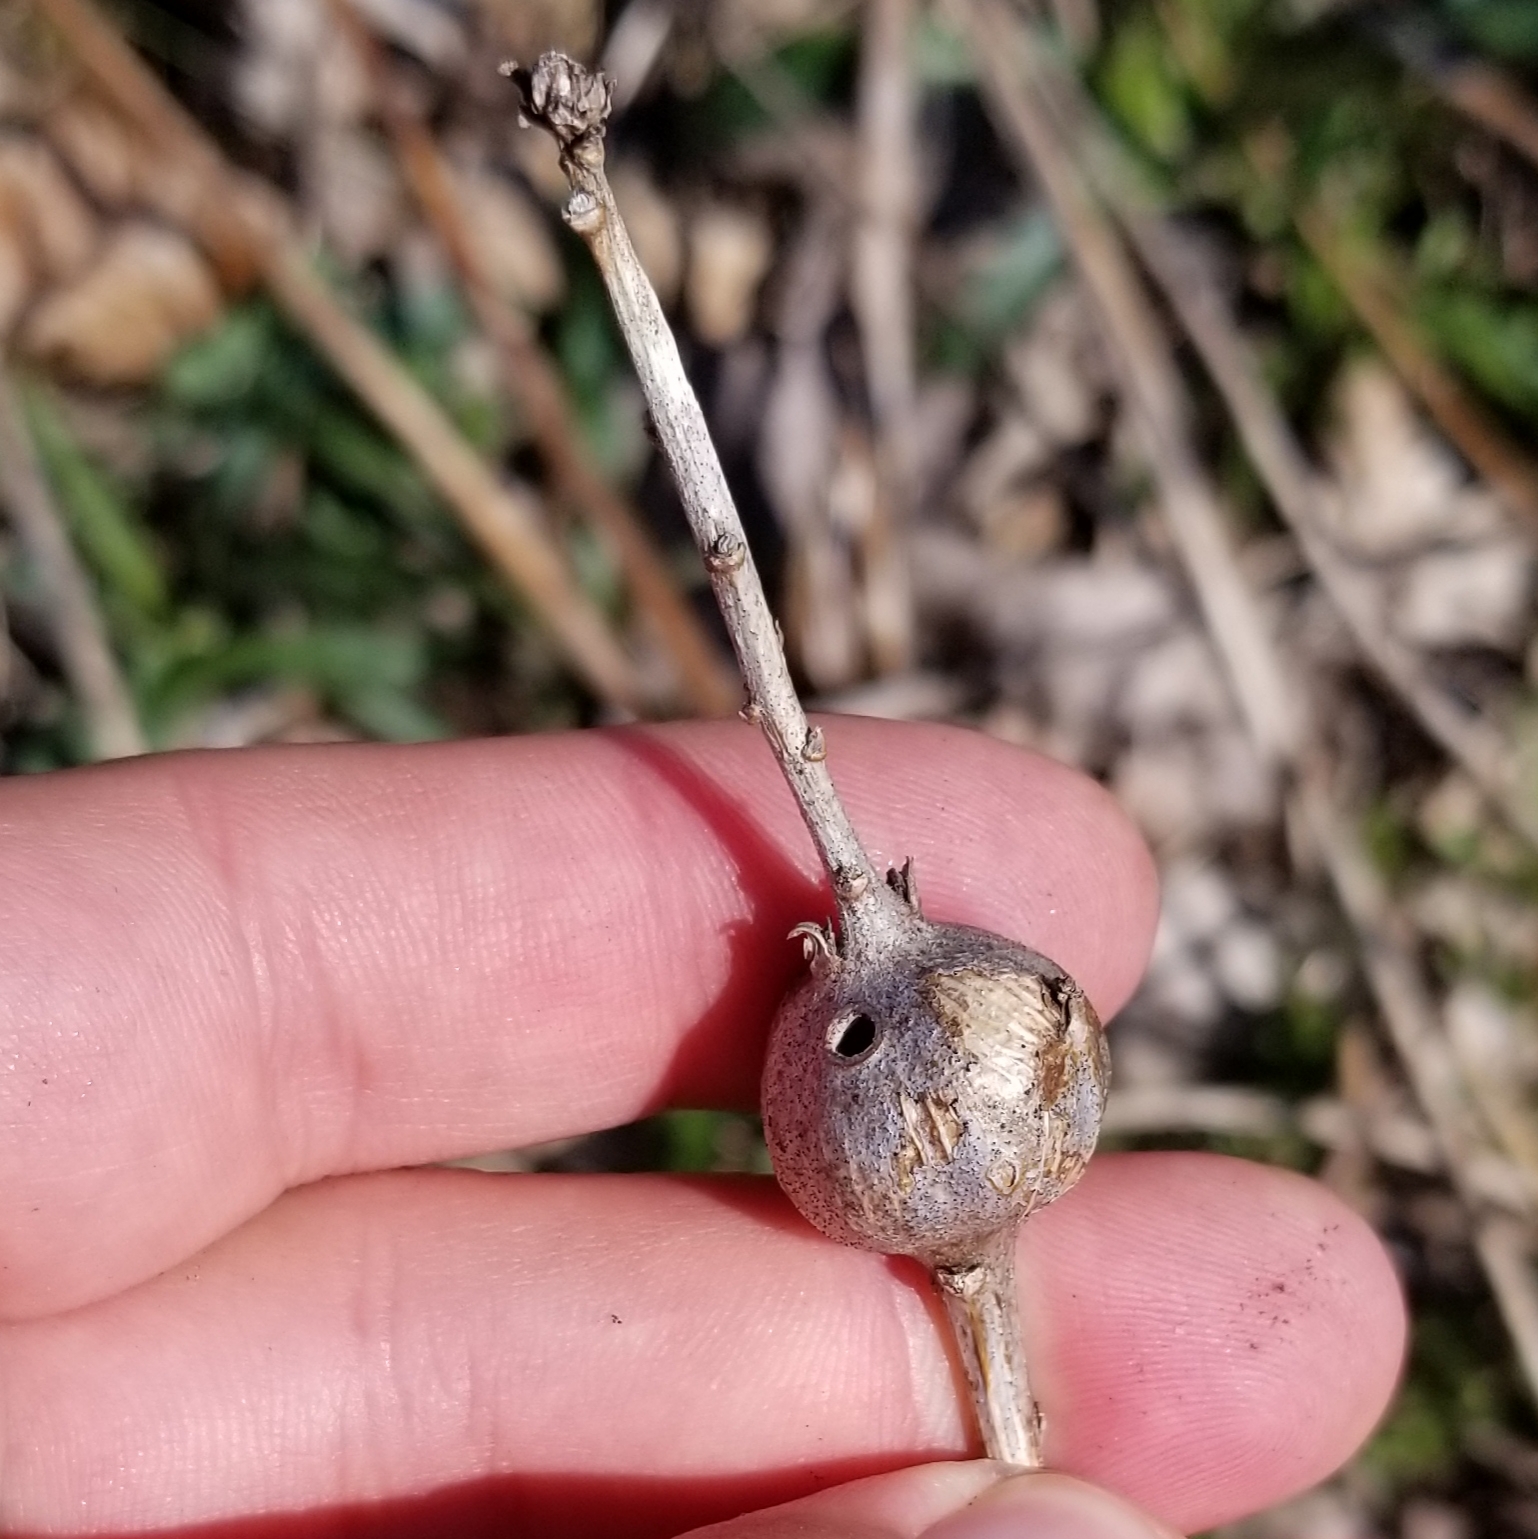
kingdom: Animalia
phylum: Arthropoda
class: Insecta
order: Diptera
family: Tephritidae
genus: Eurosta
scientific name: Eurosta solidaginis
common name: Goldenrod gall fly
